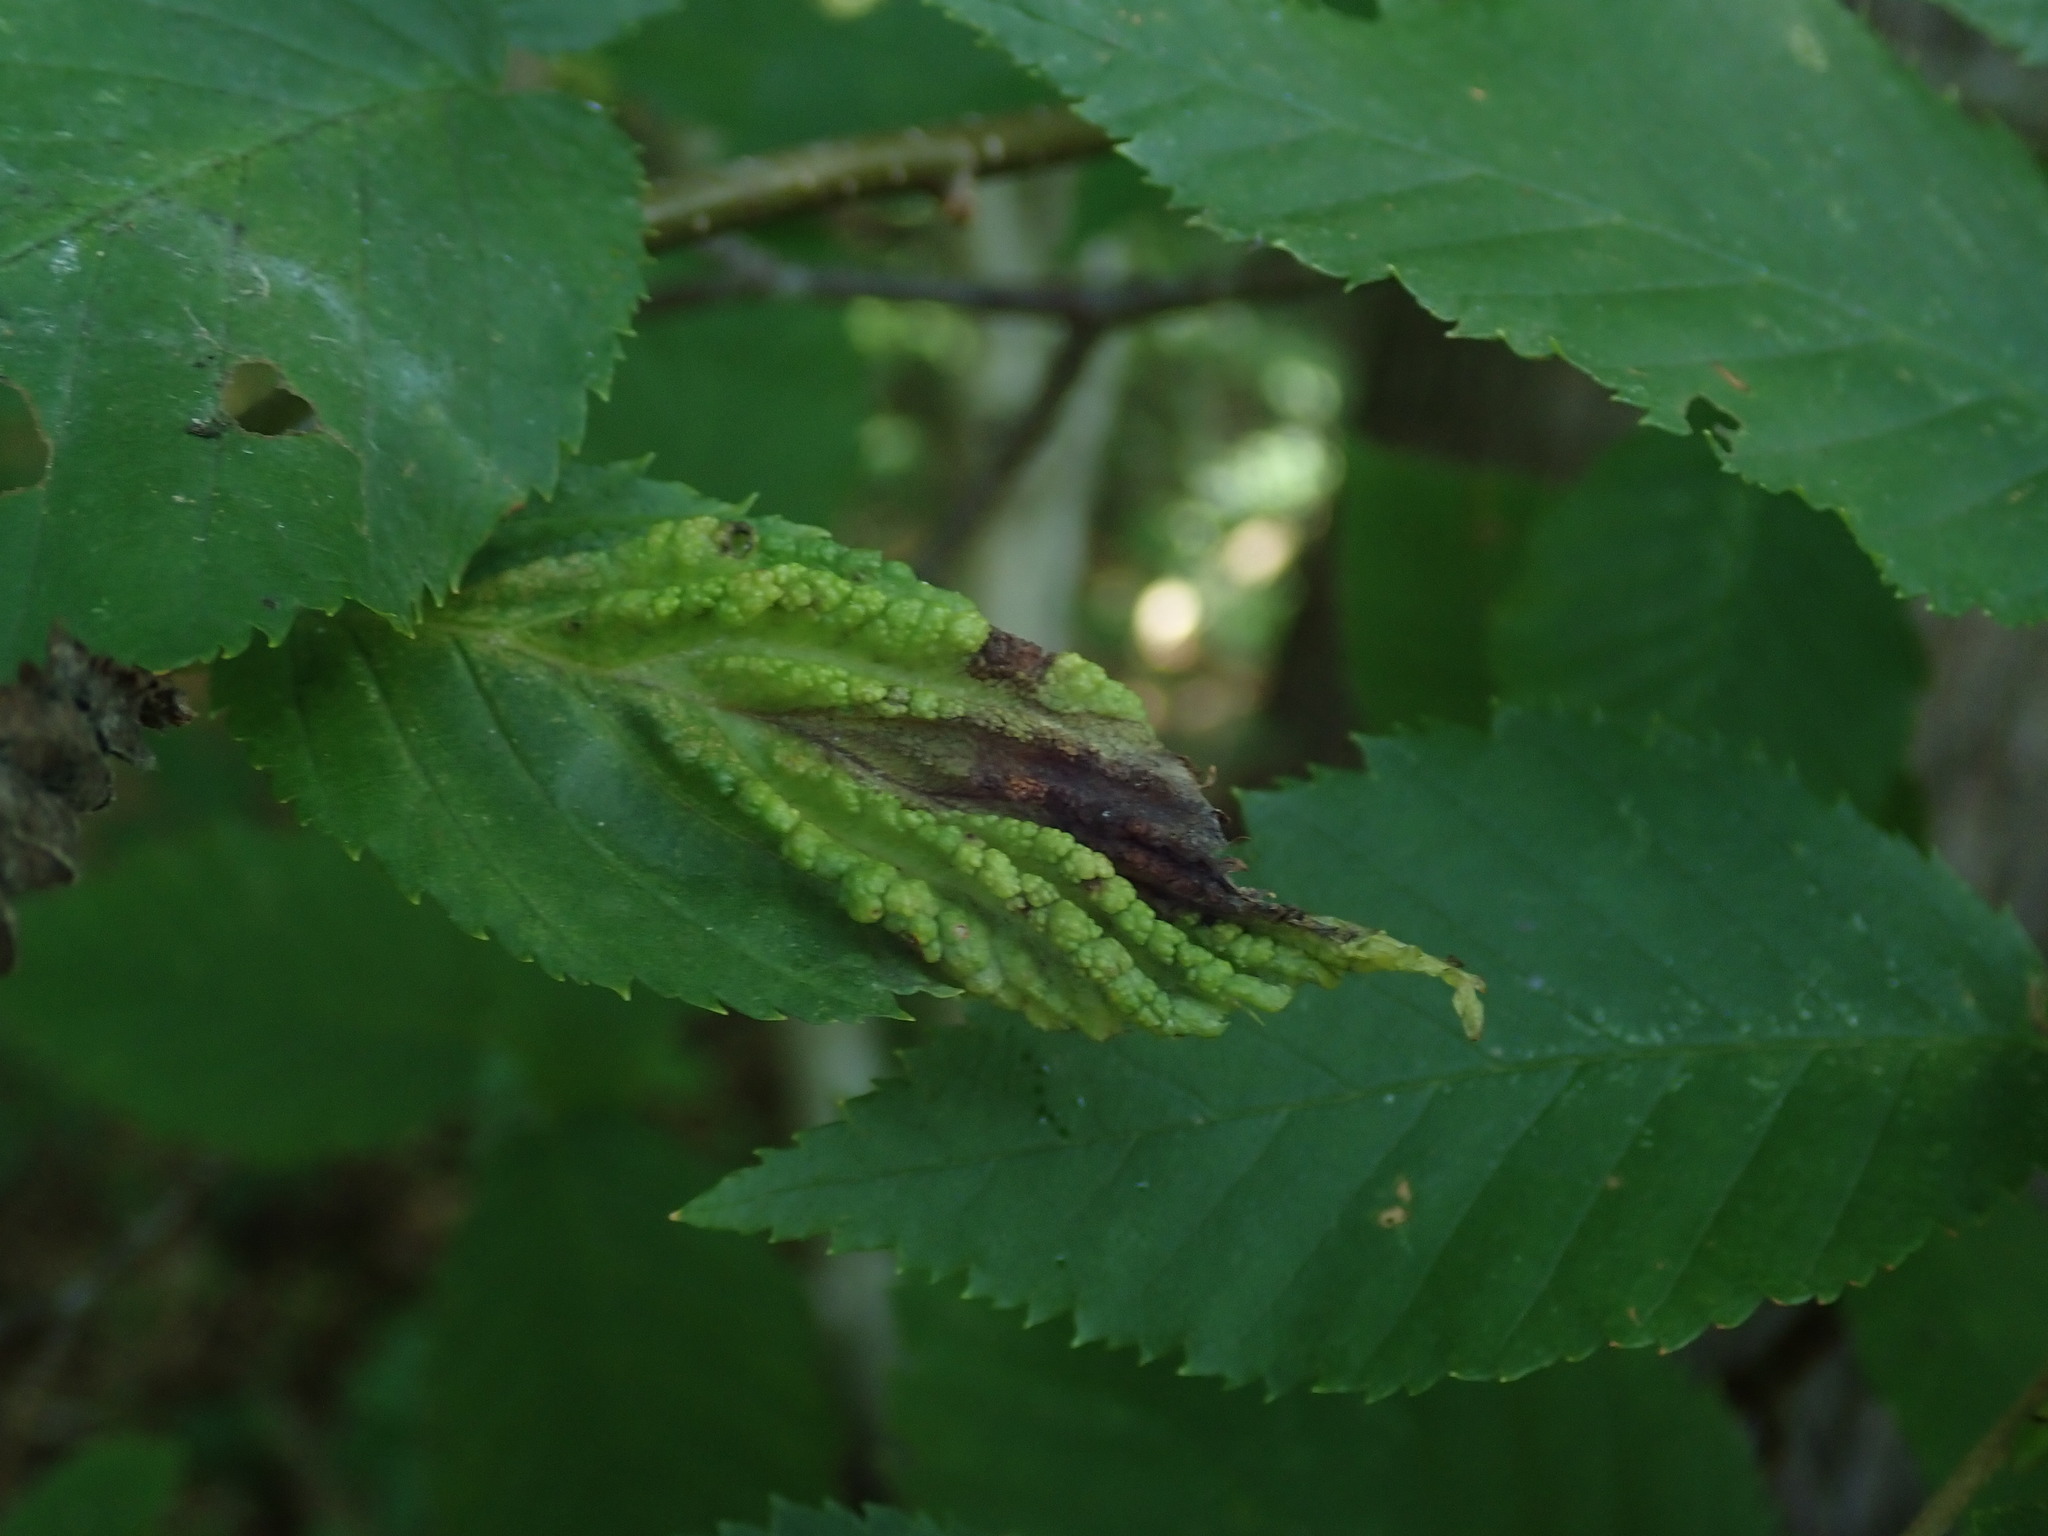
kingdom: Animalia
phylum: Arthropoda
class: Insecta
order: Hemiptera
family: Aphididae
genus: Hamamelistes
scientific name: Hamamelistes spinosus
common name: Witch hazel gall aphid
